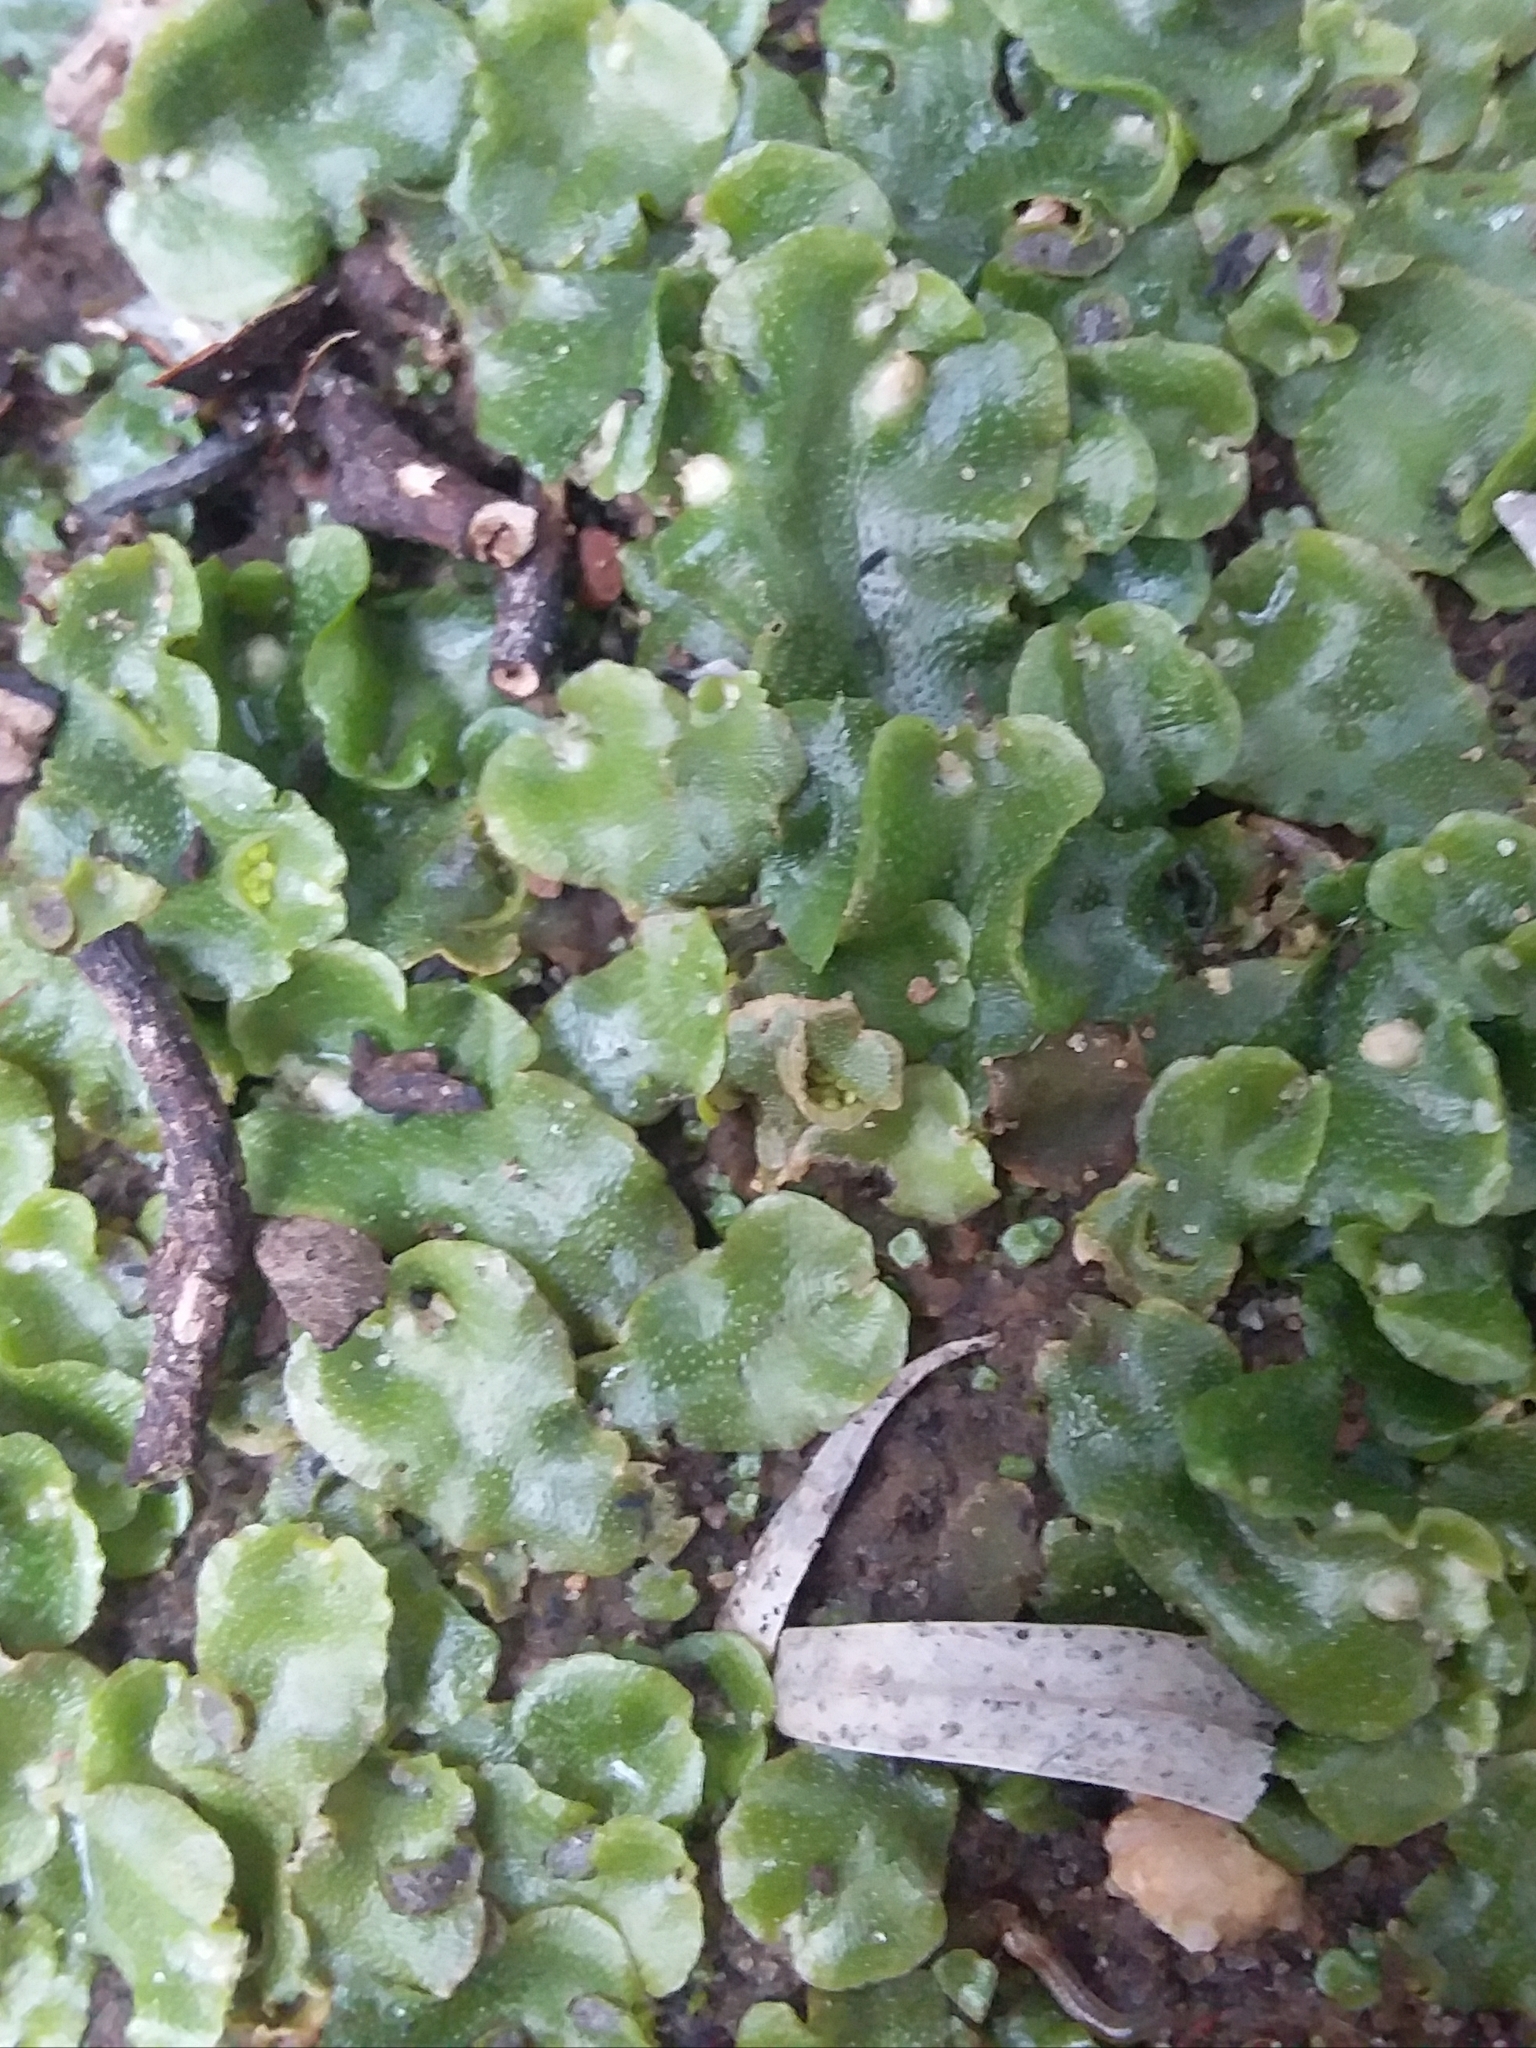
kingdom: Plantae
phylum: Marchantiophyta
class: Marchantiopsida
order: Lunulariales
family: Lunulariaceae
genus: Lunularia
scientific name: Lunularia cruciata
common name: Crescent-cup liverwort
